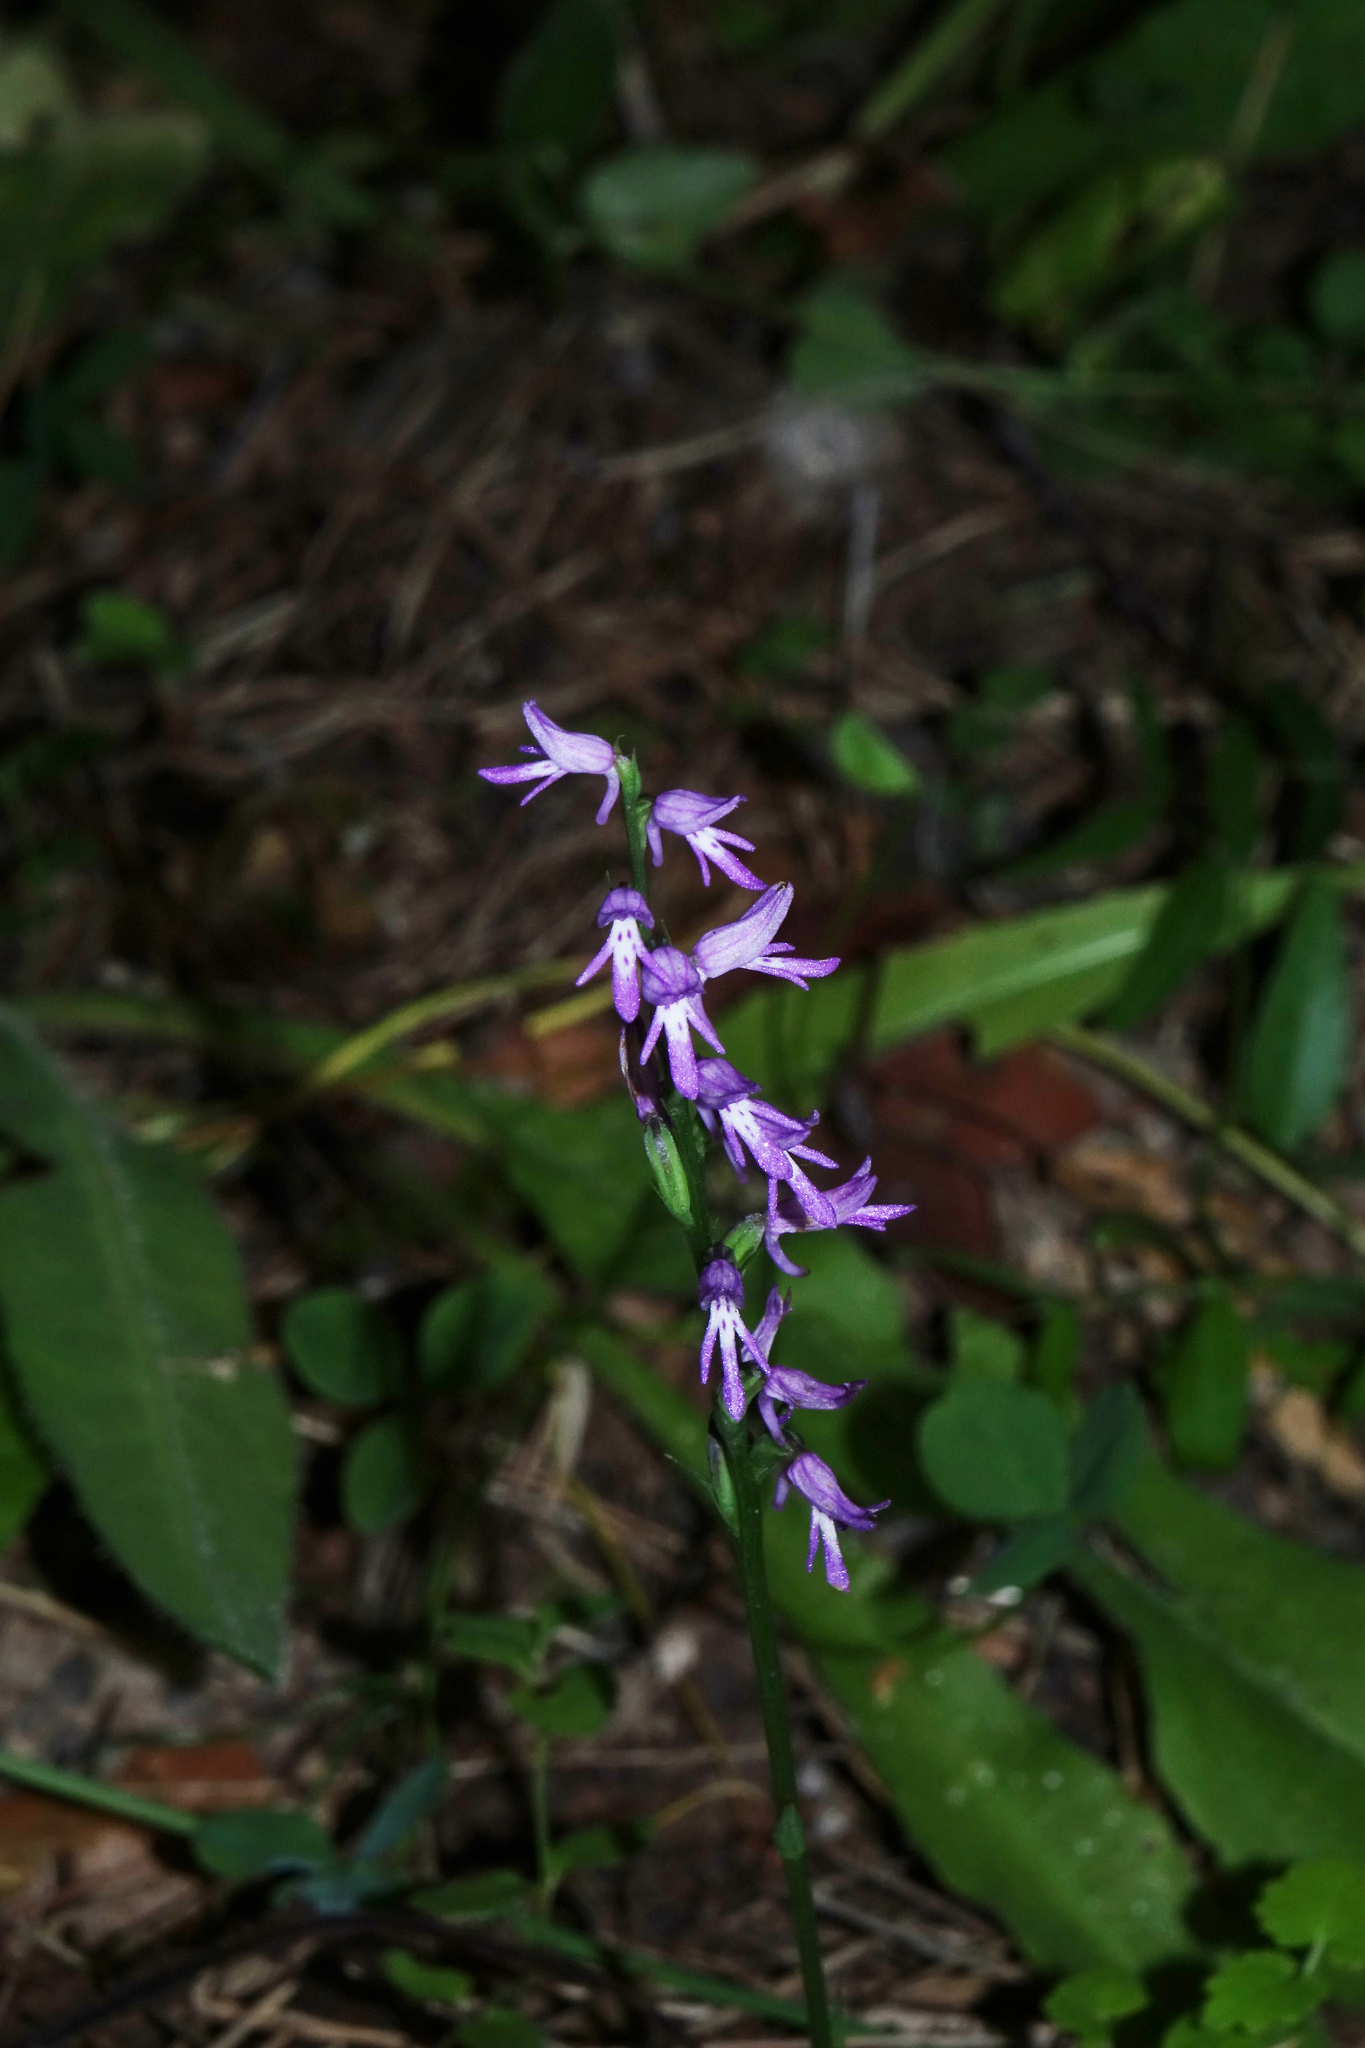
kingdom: Plantae
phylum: Tracheophyta
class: Liliopsida
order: Asparagales
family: Orchidaceae
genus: Hemipilia
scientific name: Hemipilia cucullata
